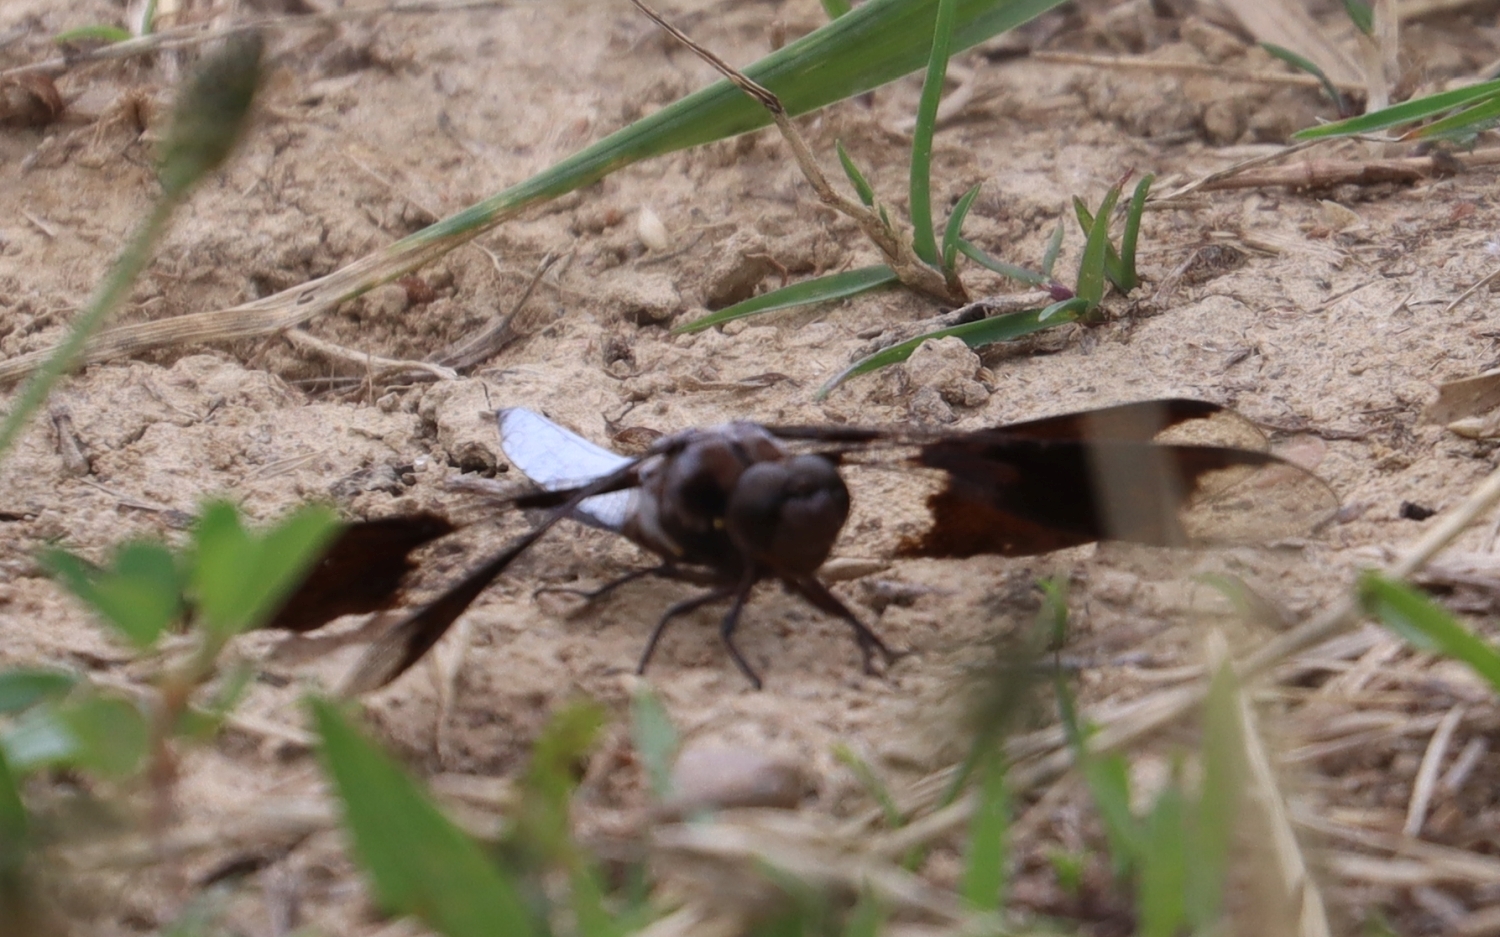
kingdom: Animalia
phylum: Arthropoda
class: Insecta
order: Odonata
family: Libellulidae
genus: Plathemis
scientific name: Plathemis lydia
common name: Common whitetail
